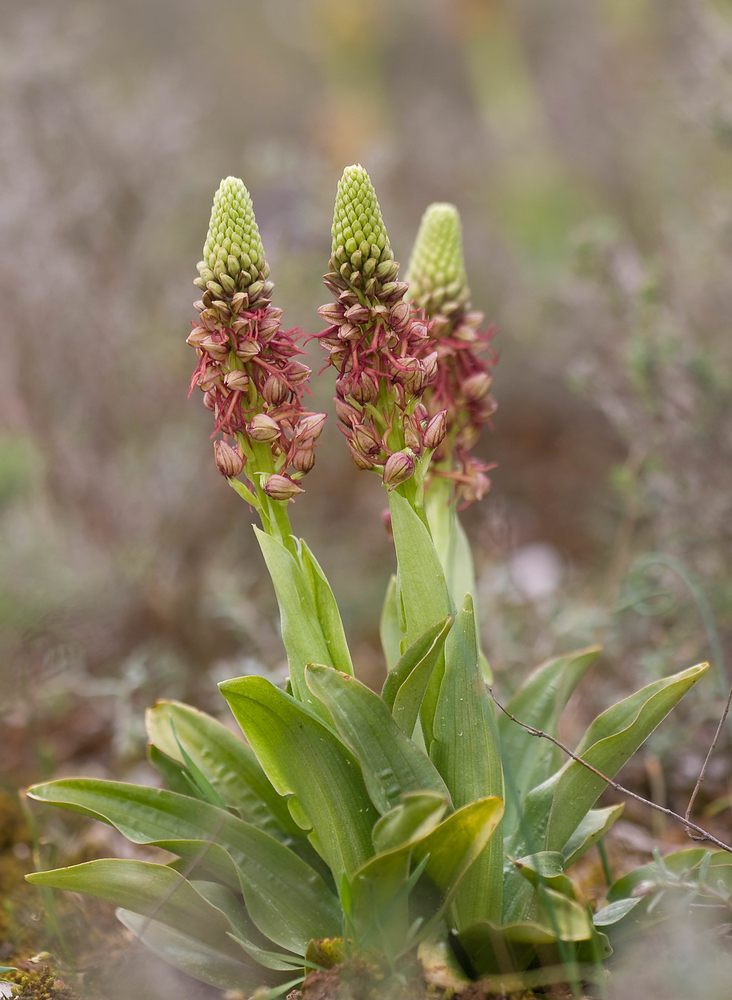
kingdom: Plantae
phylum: Tracheophyta
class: Liliopsida
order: Asparagales
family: Orchidaceae
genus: Orchis
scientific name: Orchis anthropophora
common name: Man orchid
